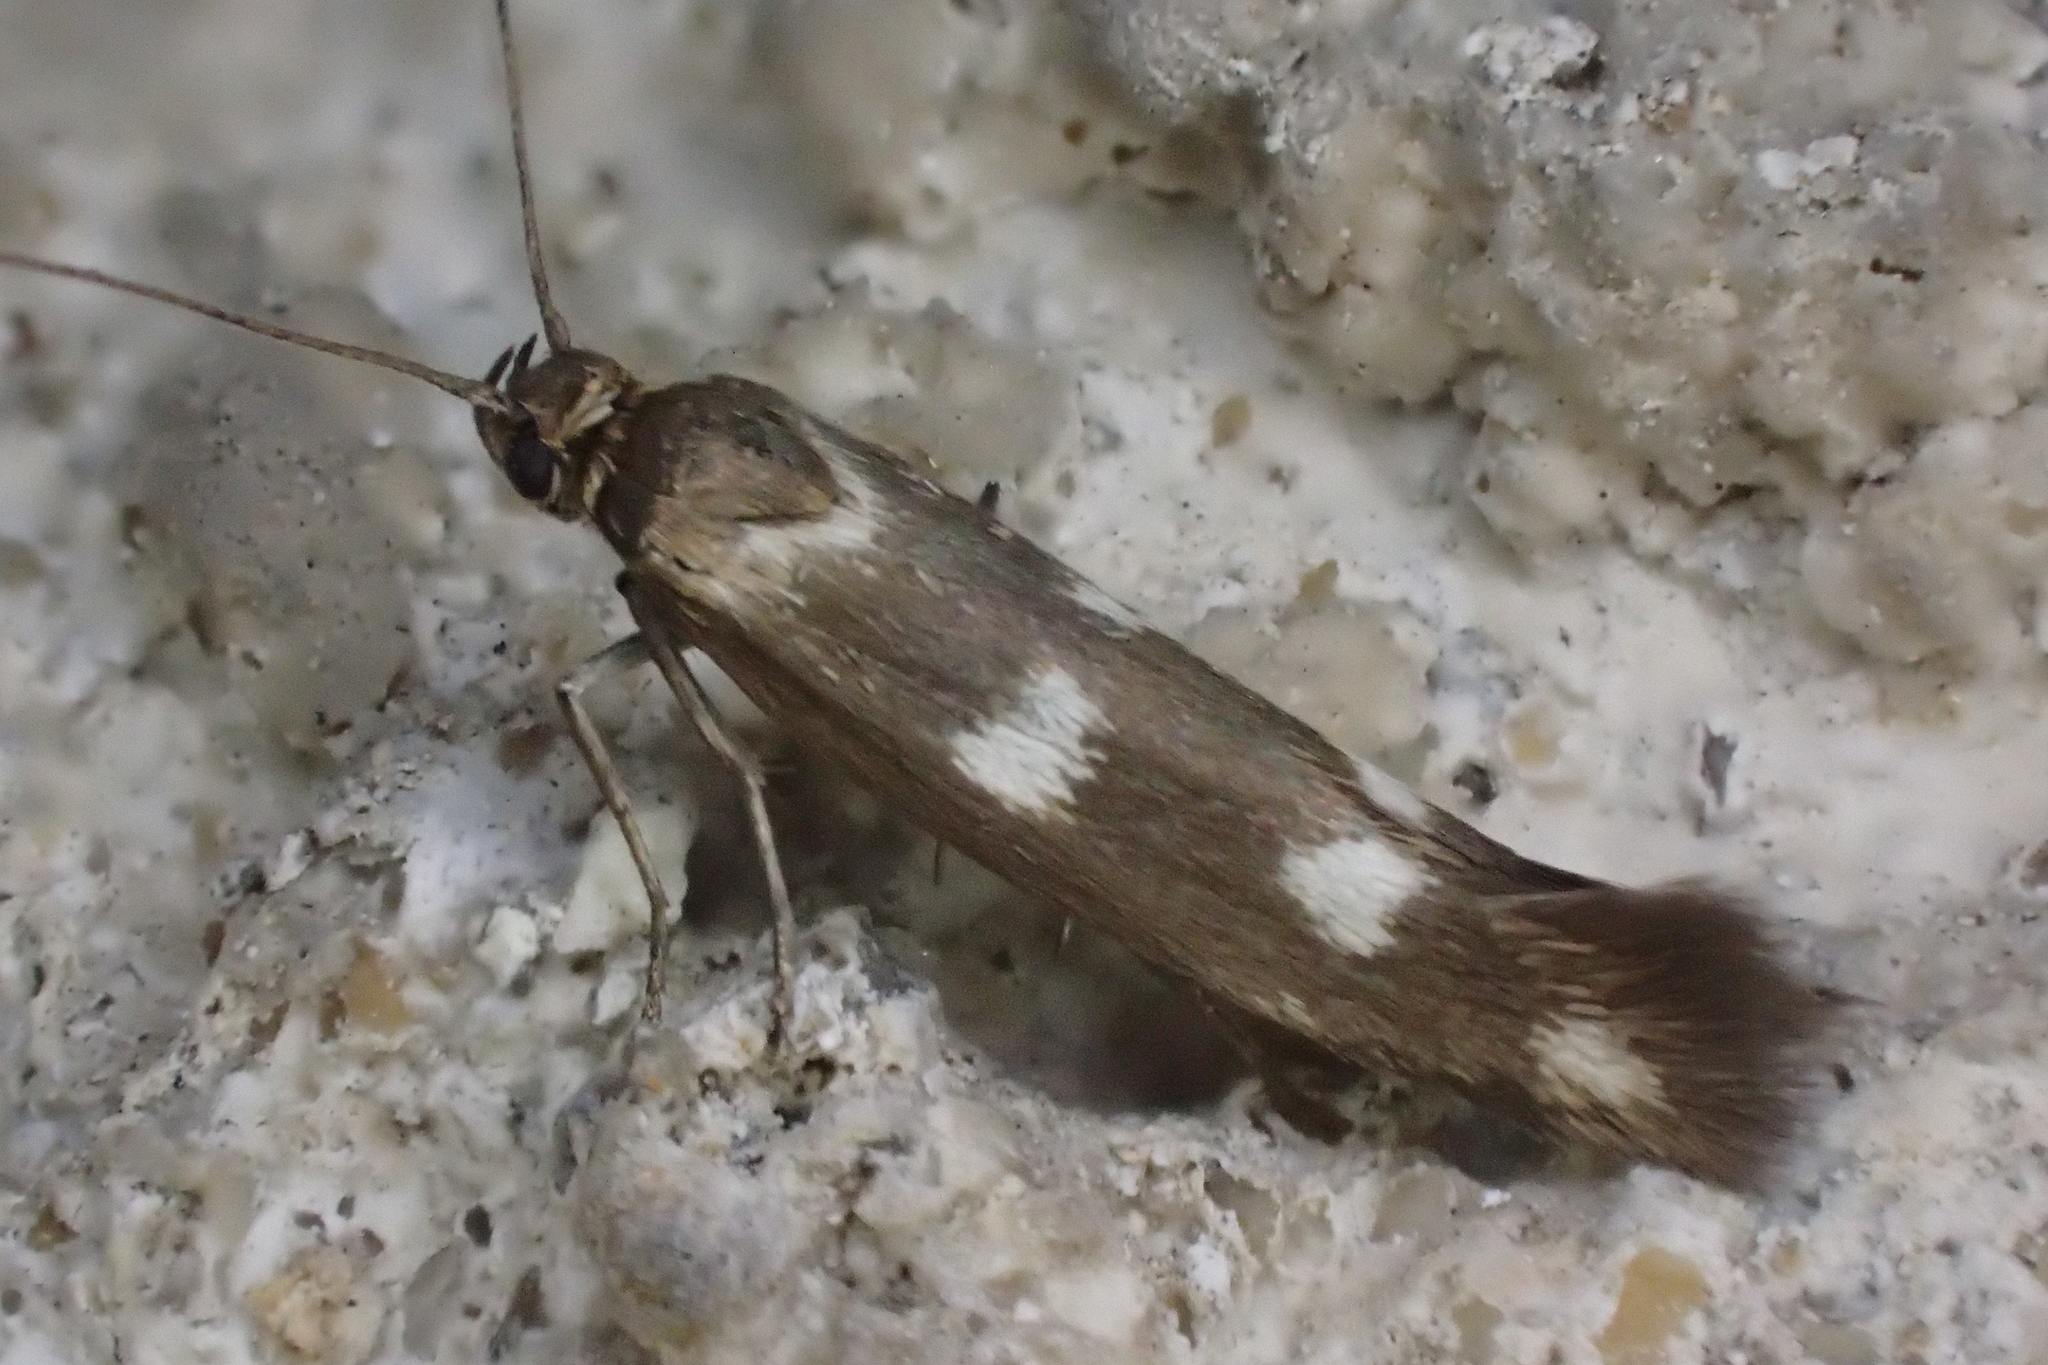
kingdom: Animalia
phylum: Arthropoda
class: Insecta
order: Lepidoptera
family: Scythrididae
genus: Scythris
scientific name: Scythris scopolella
